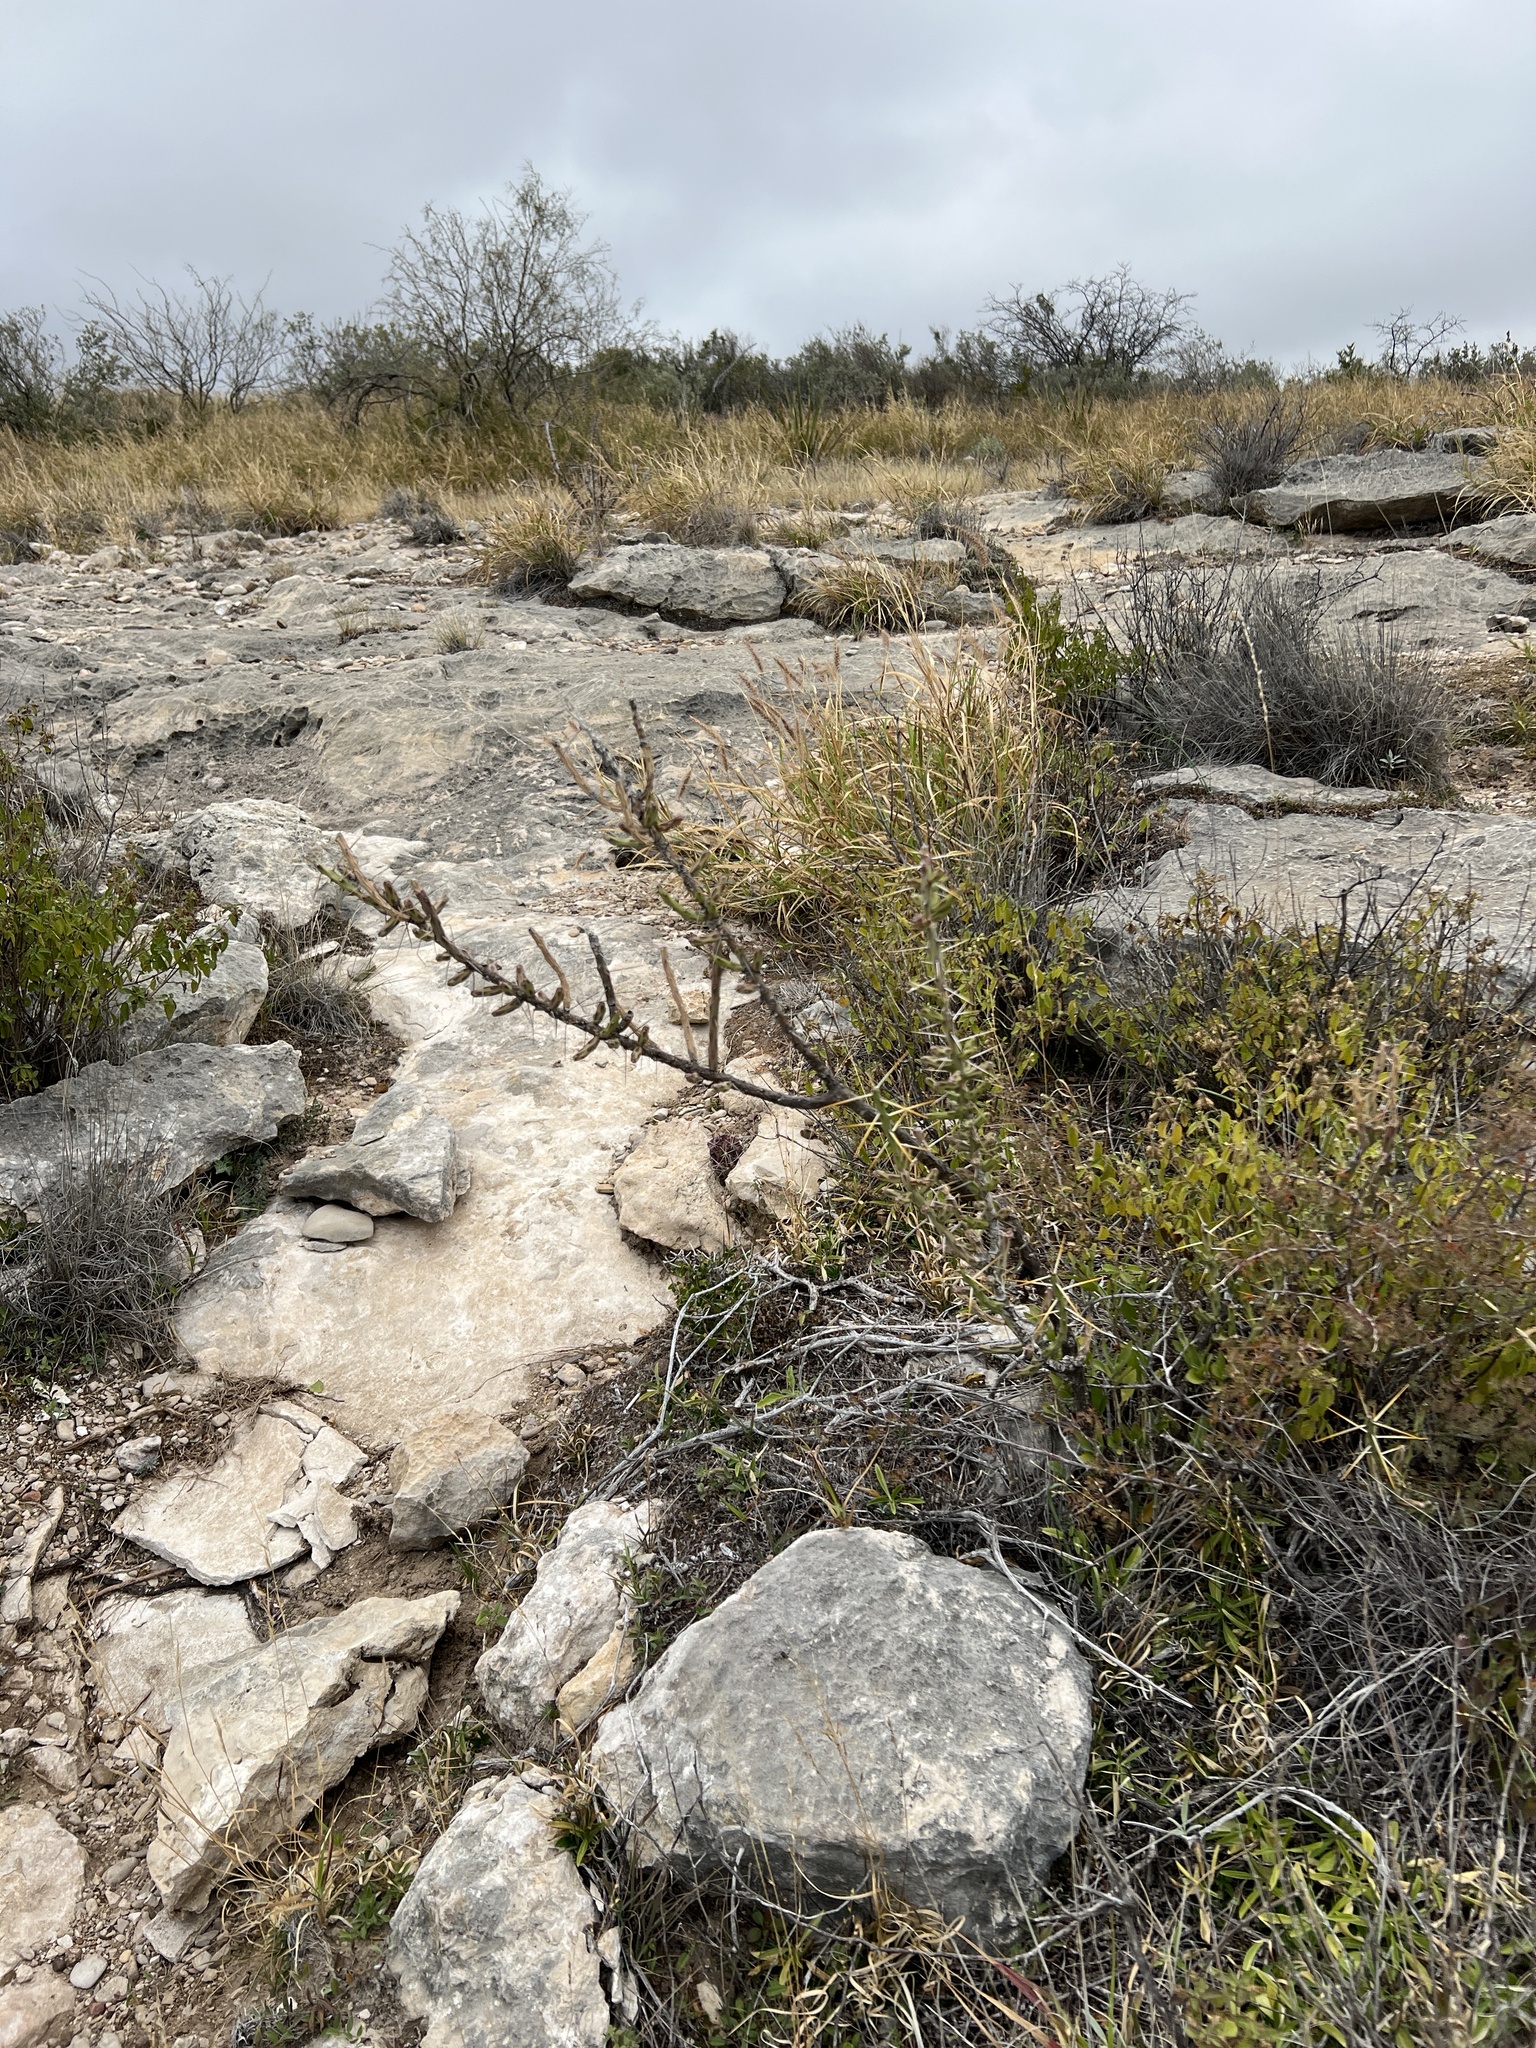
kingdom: Plantae
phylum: Tracheophyta
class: Magnoliopsida
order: Caryophyllales
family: Cactaceae
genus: Cylindropuntia
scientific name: Cylindropuntia leptocaulis
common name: Christmas cactus
